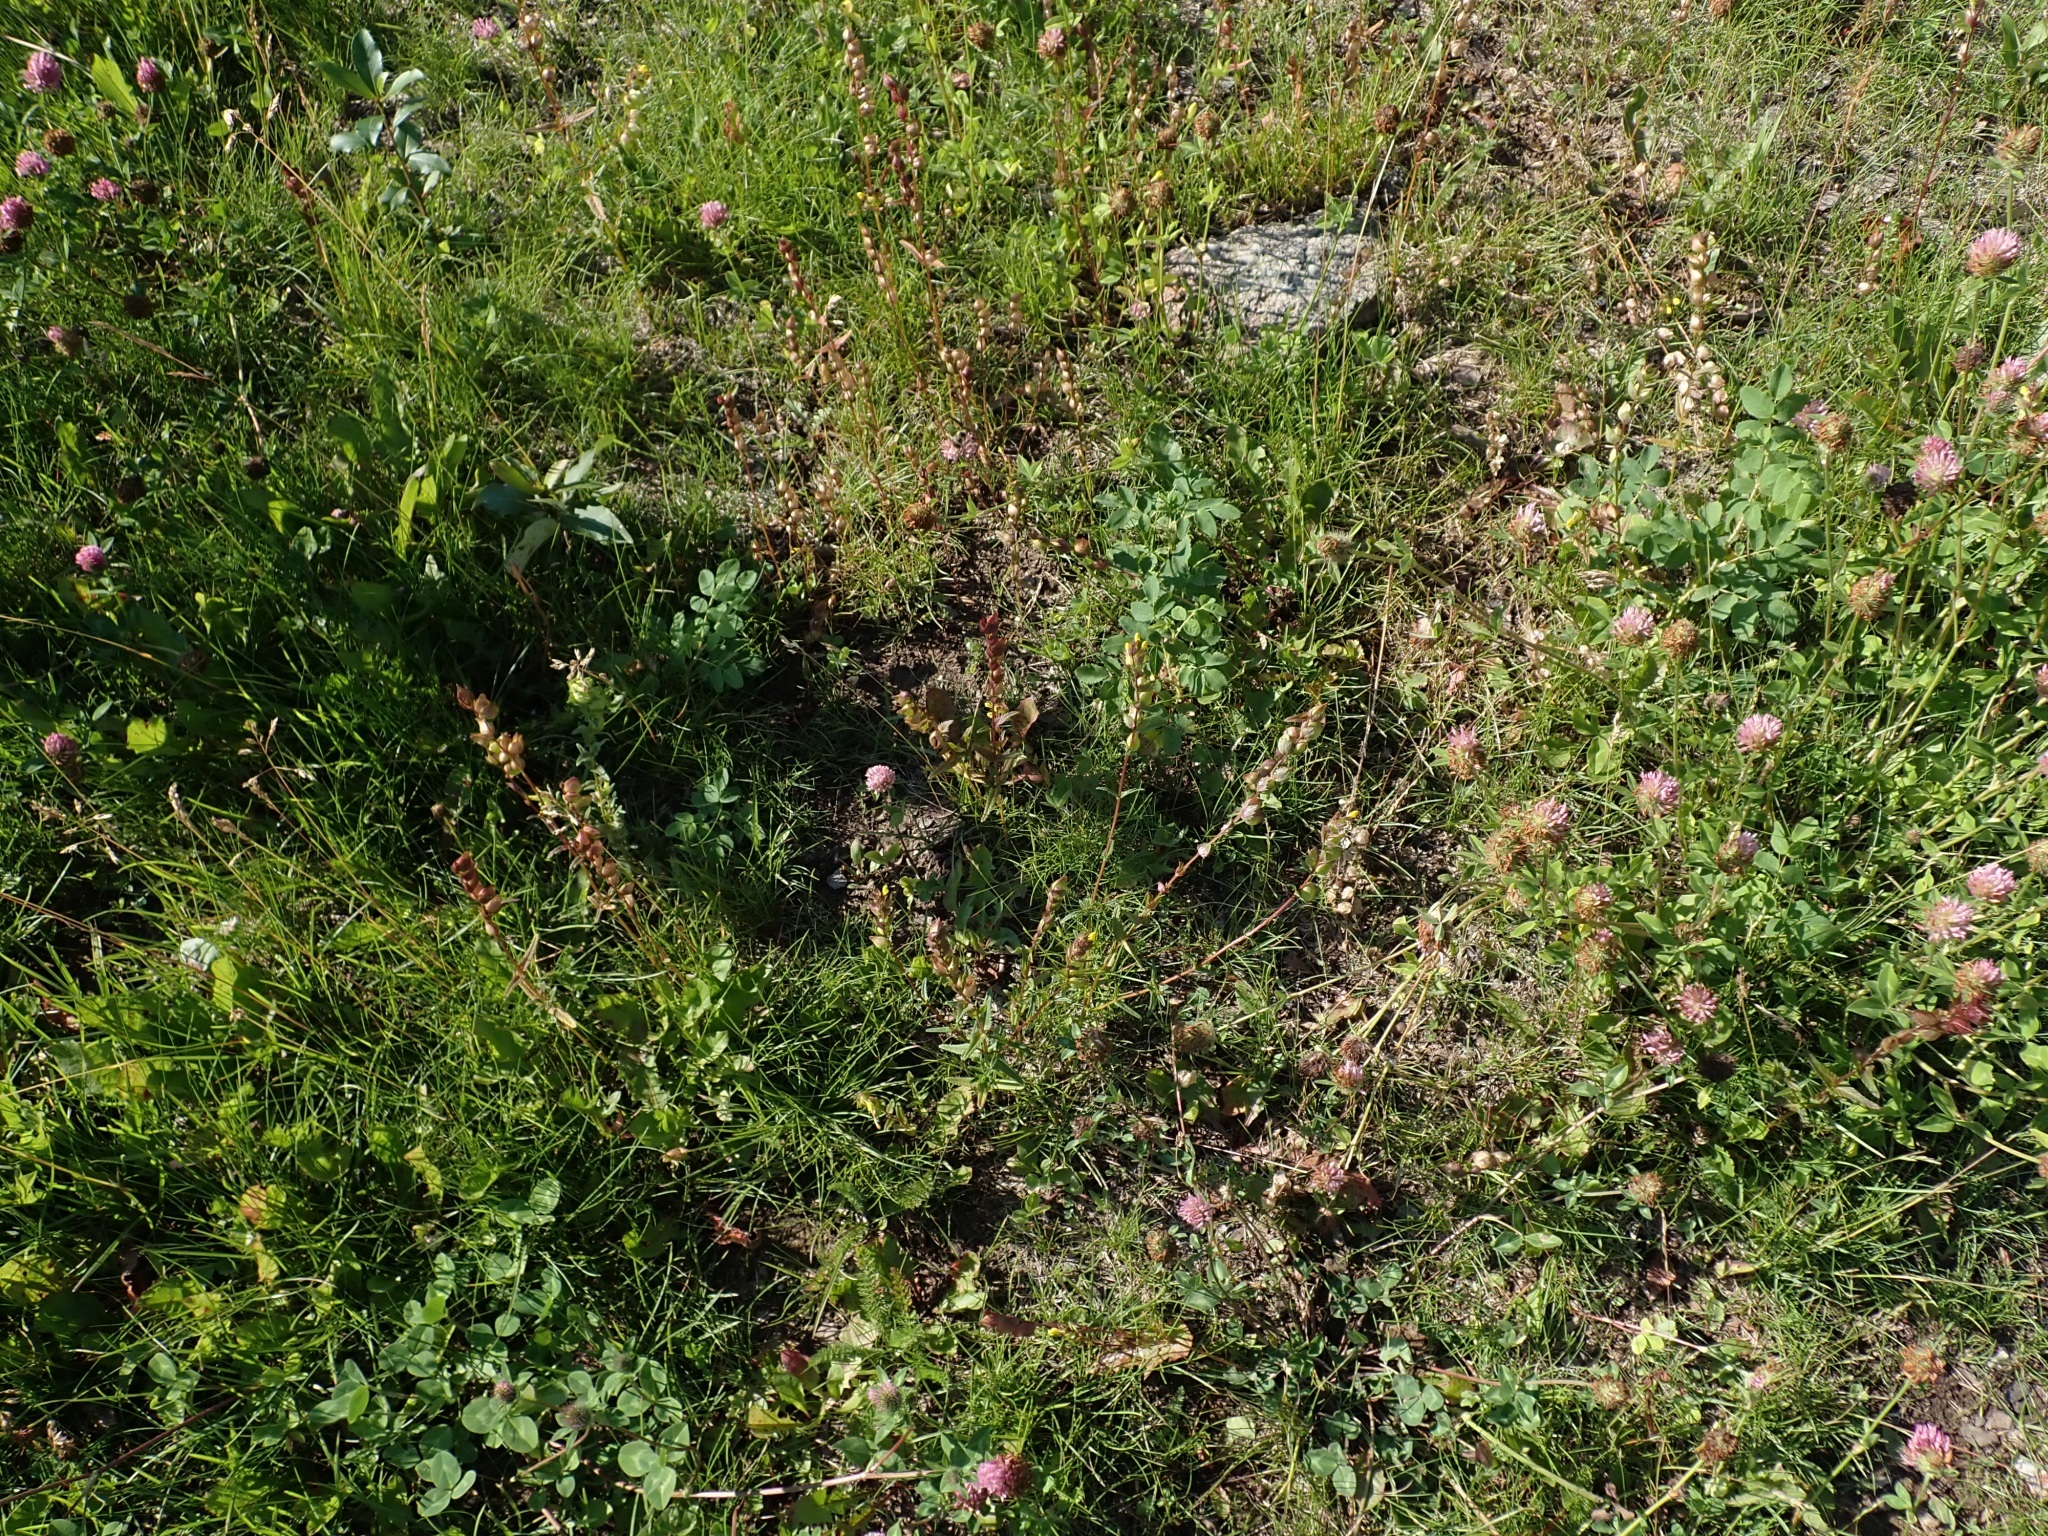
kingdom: Plantae
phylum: Tracheophyta
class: Magnoliopsida
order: Lamiales
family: Orobanchaceae
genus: Rhinanthus
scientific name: Rhinanthus groenlandicus
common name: Little yellow rattle
